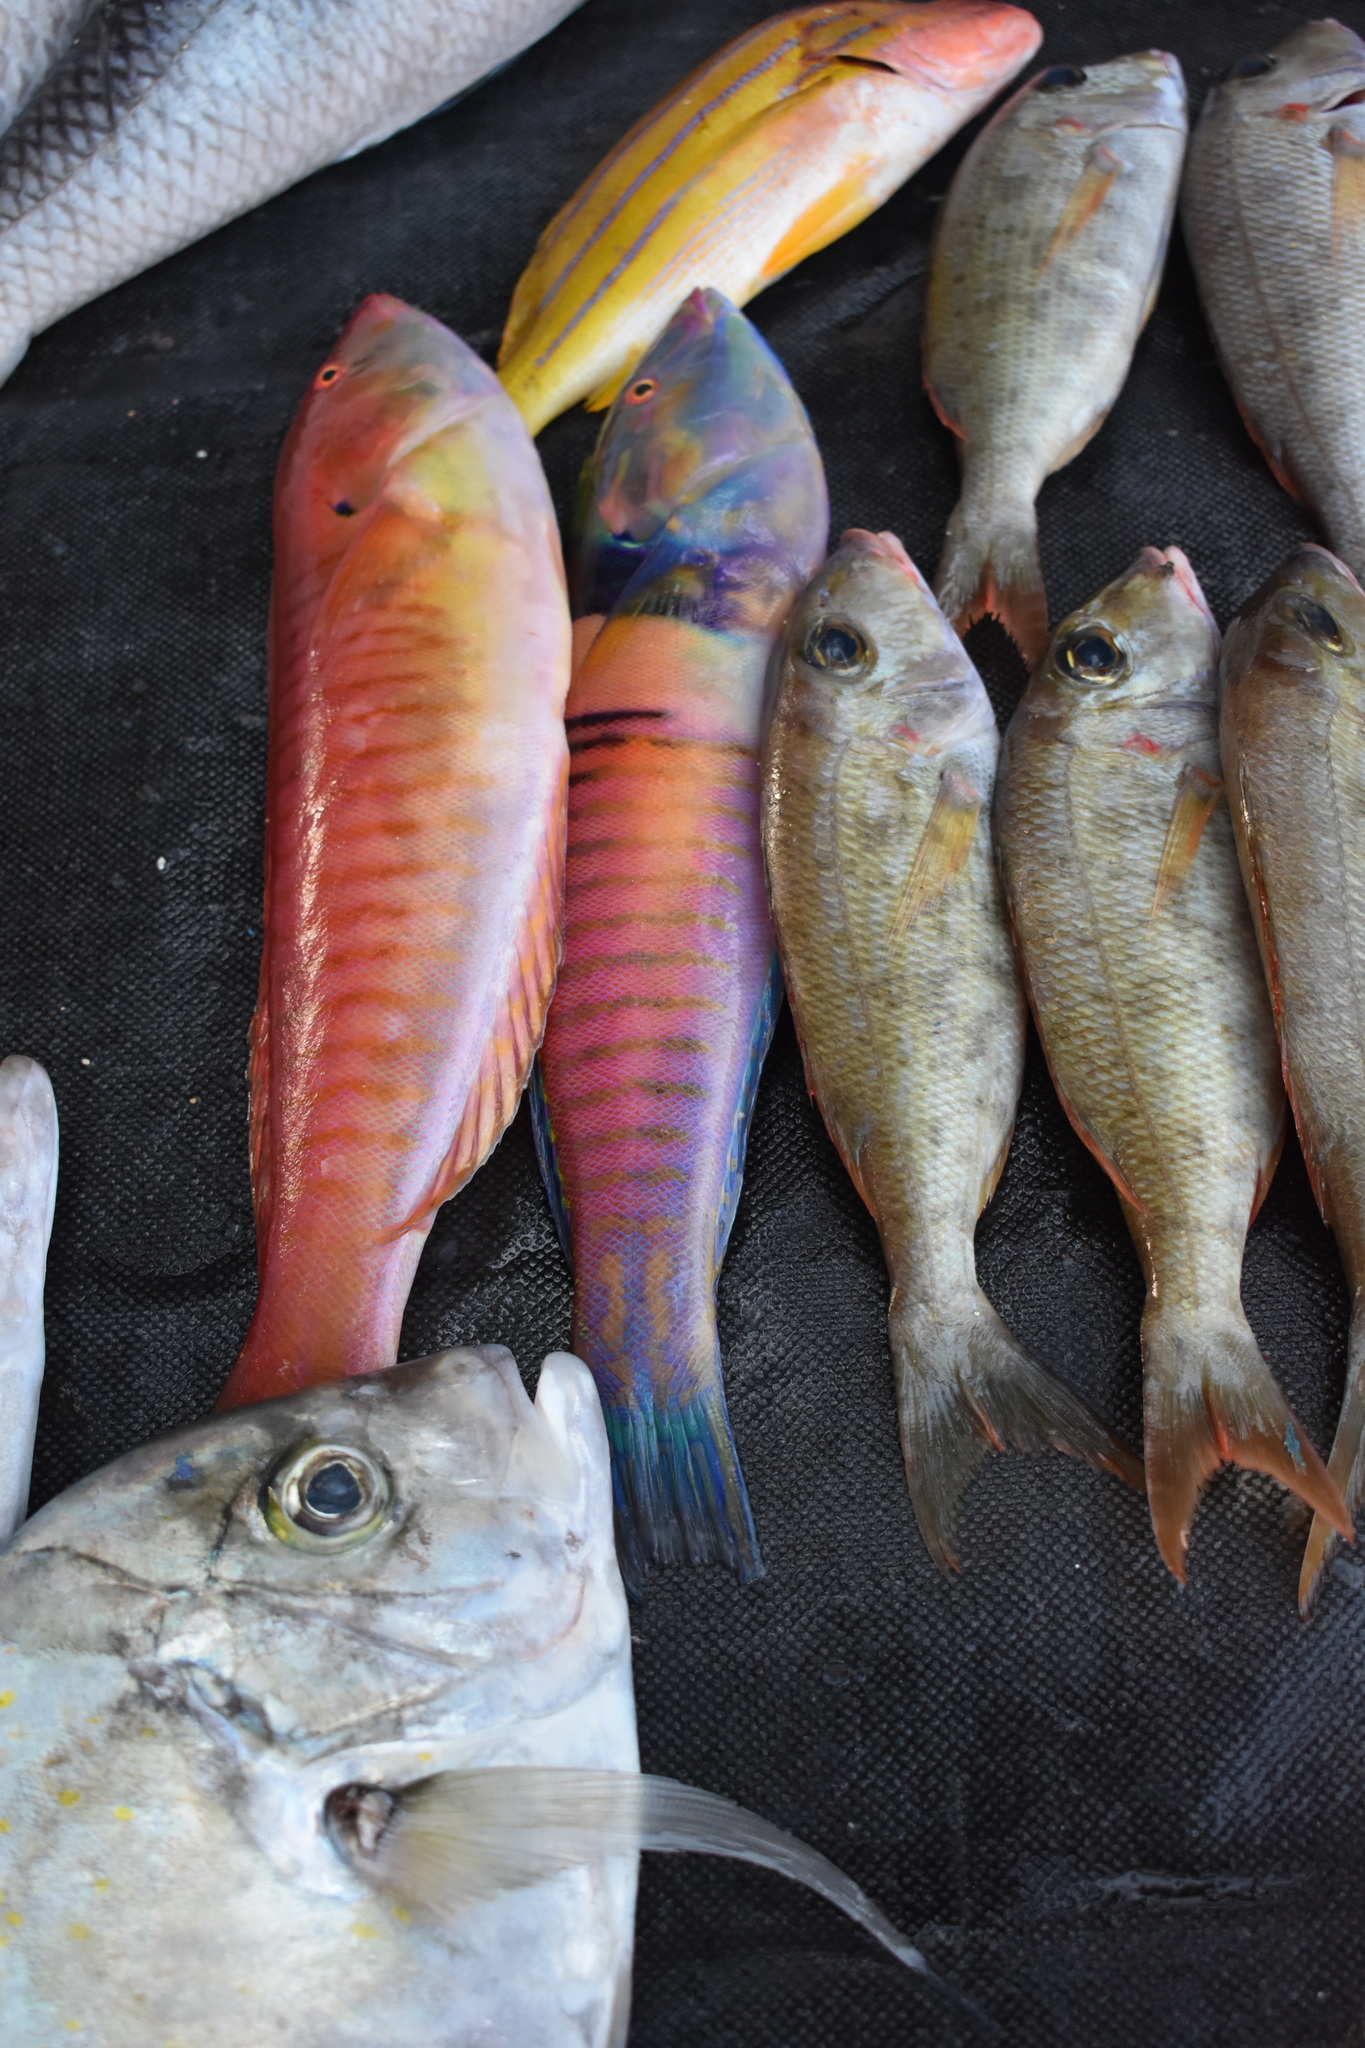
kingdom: Animalia
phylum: Chordata
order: Perciformes
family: Labridae
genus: Hologymnosus
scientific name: Hologymnosus doliatus
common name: Pastel ringwrasse
